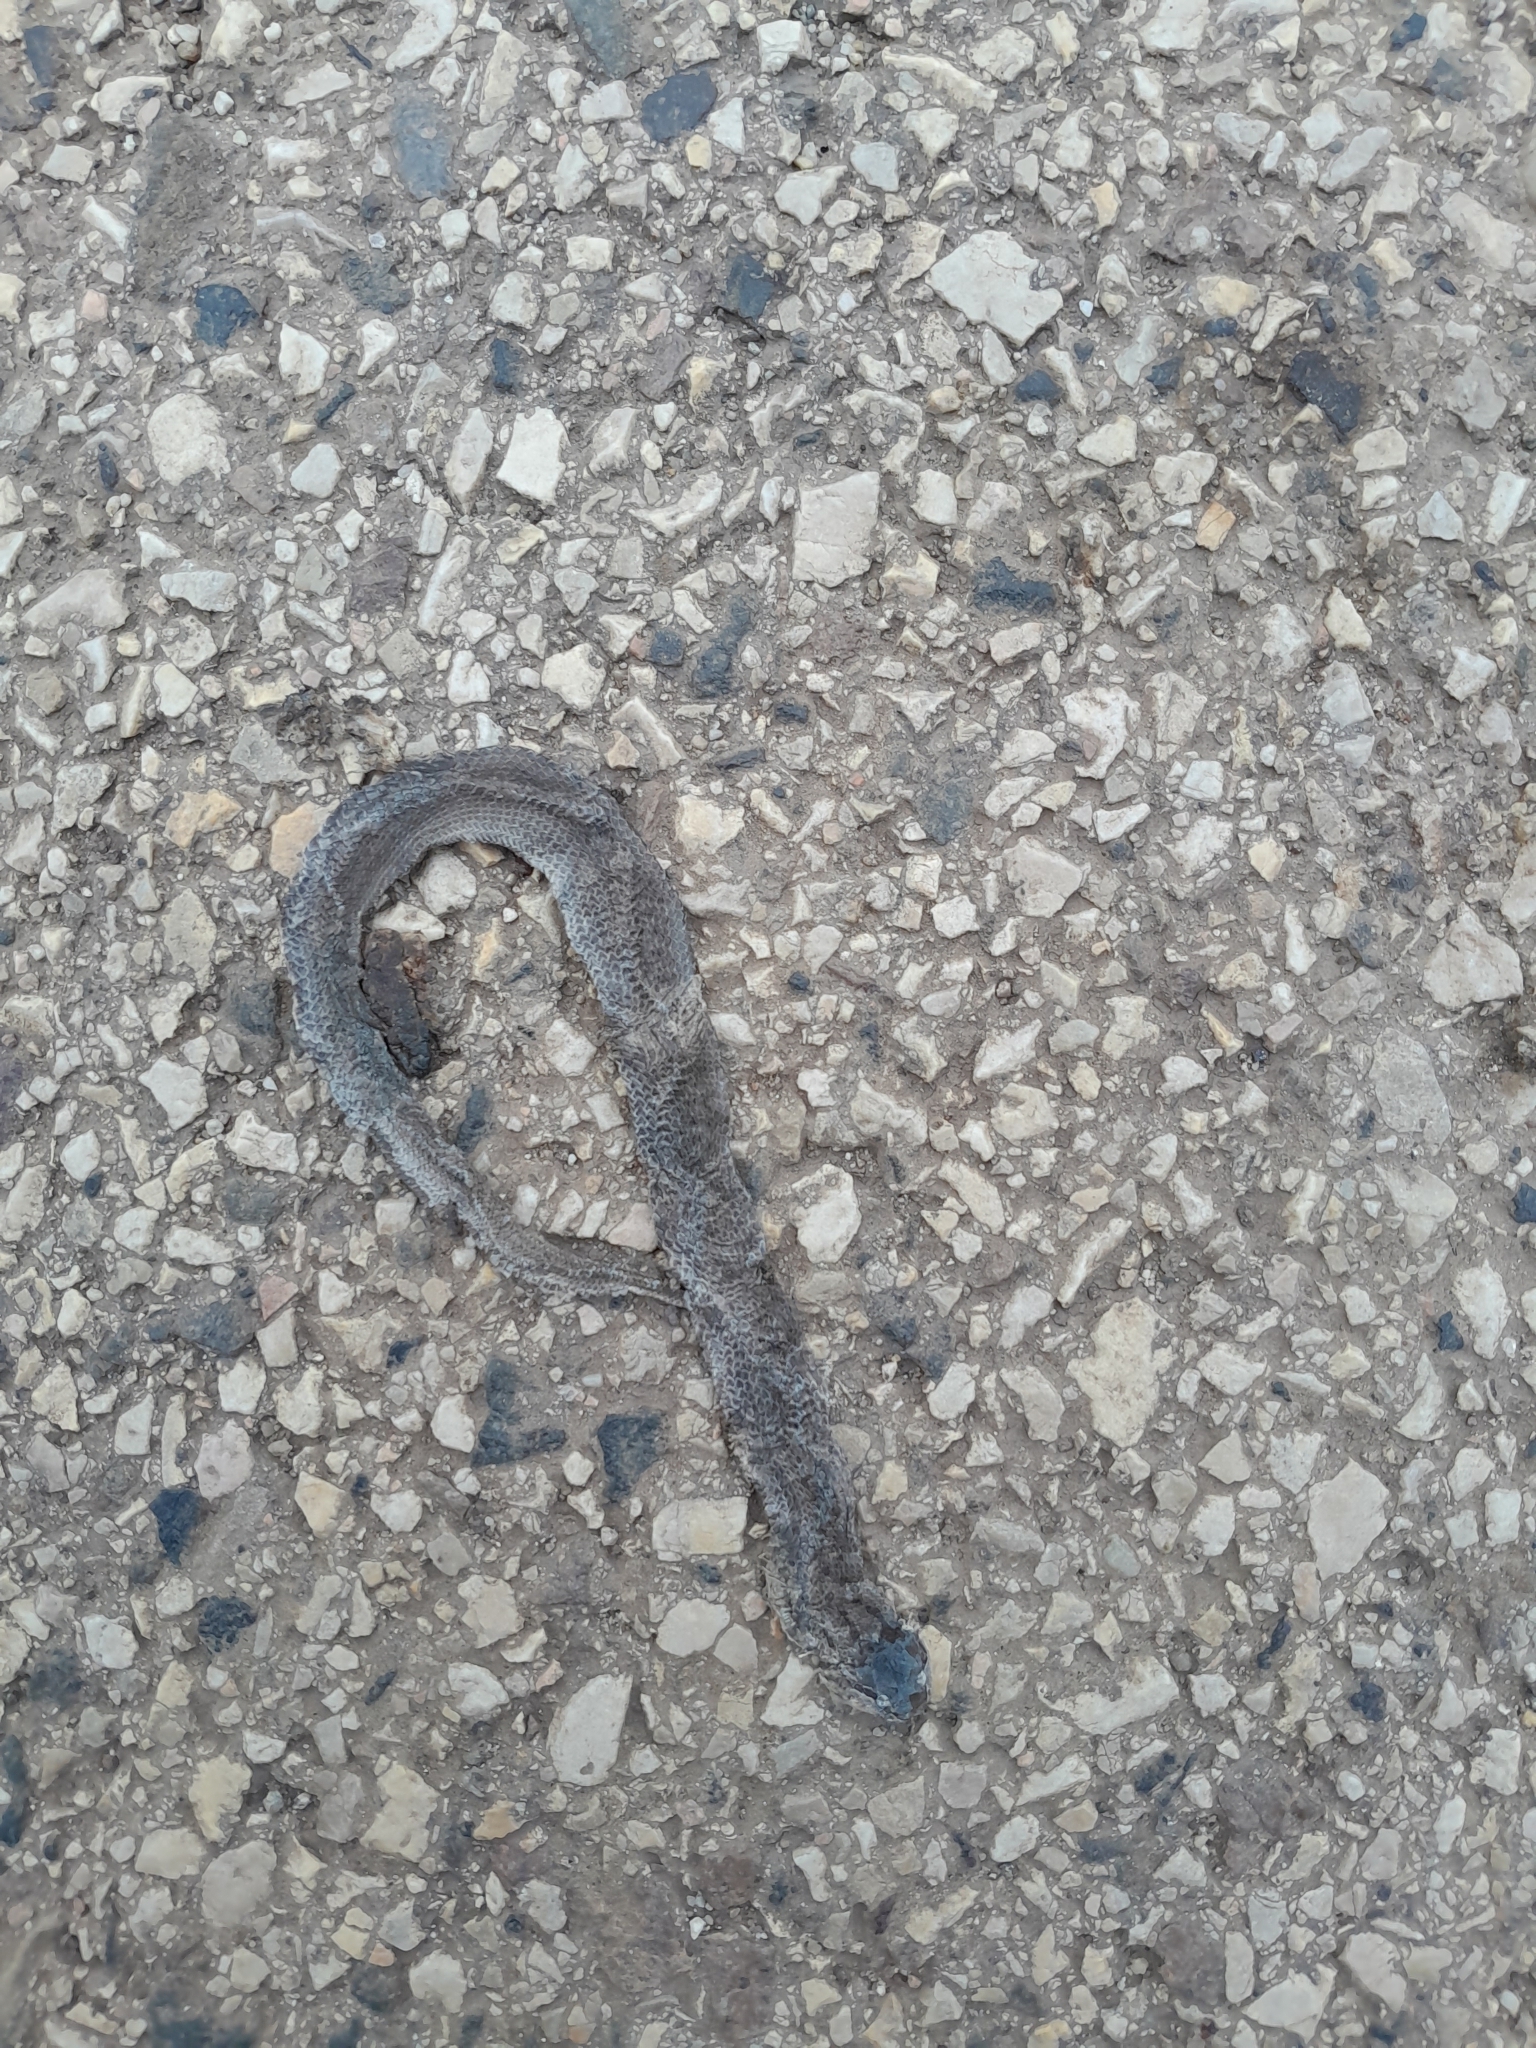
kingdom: Animalia
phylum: Chordata
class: Squamata
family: Colubridae
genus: Coronella
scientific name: Coronella austriaca
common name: Smooth snake
